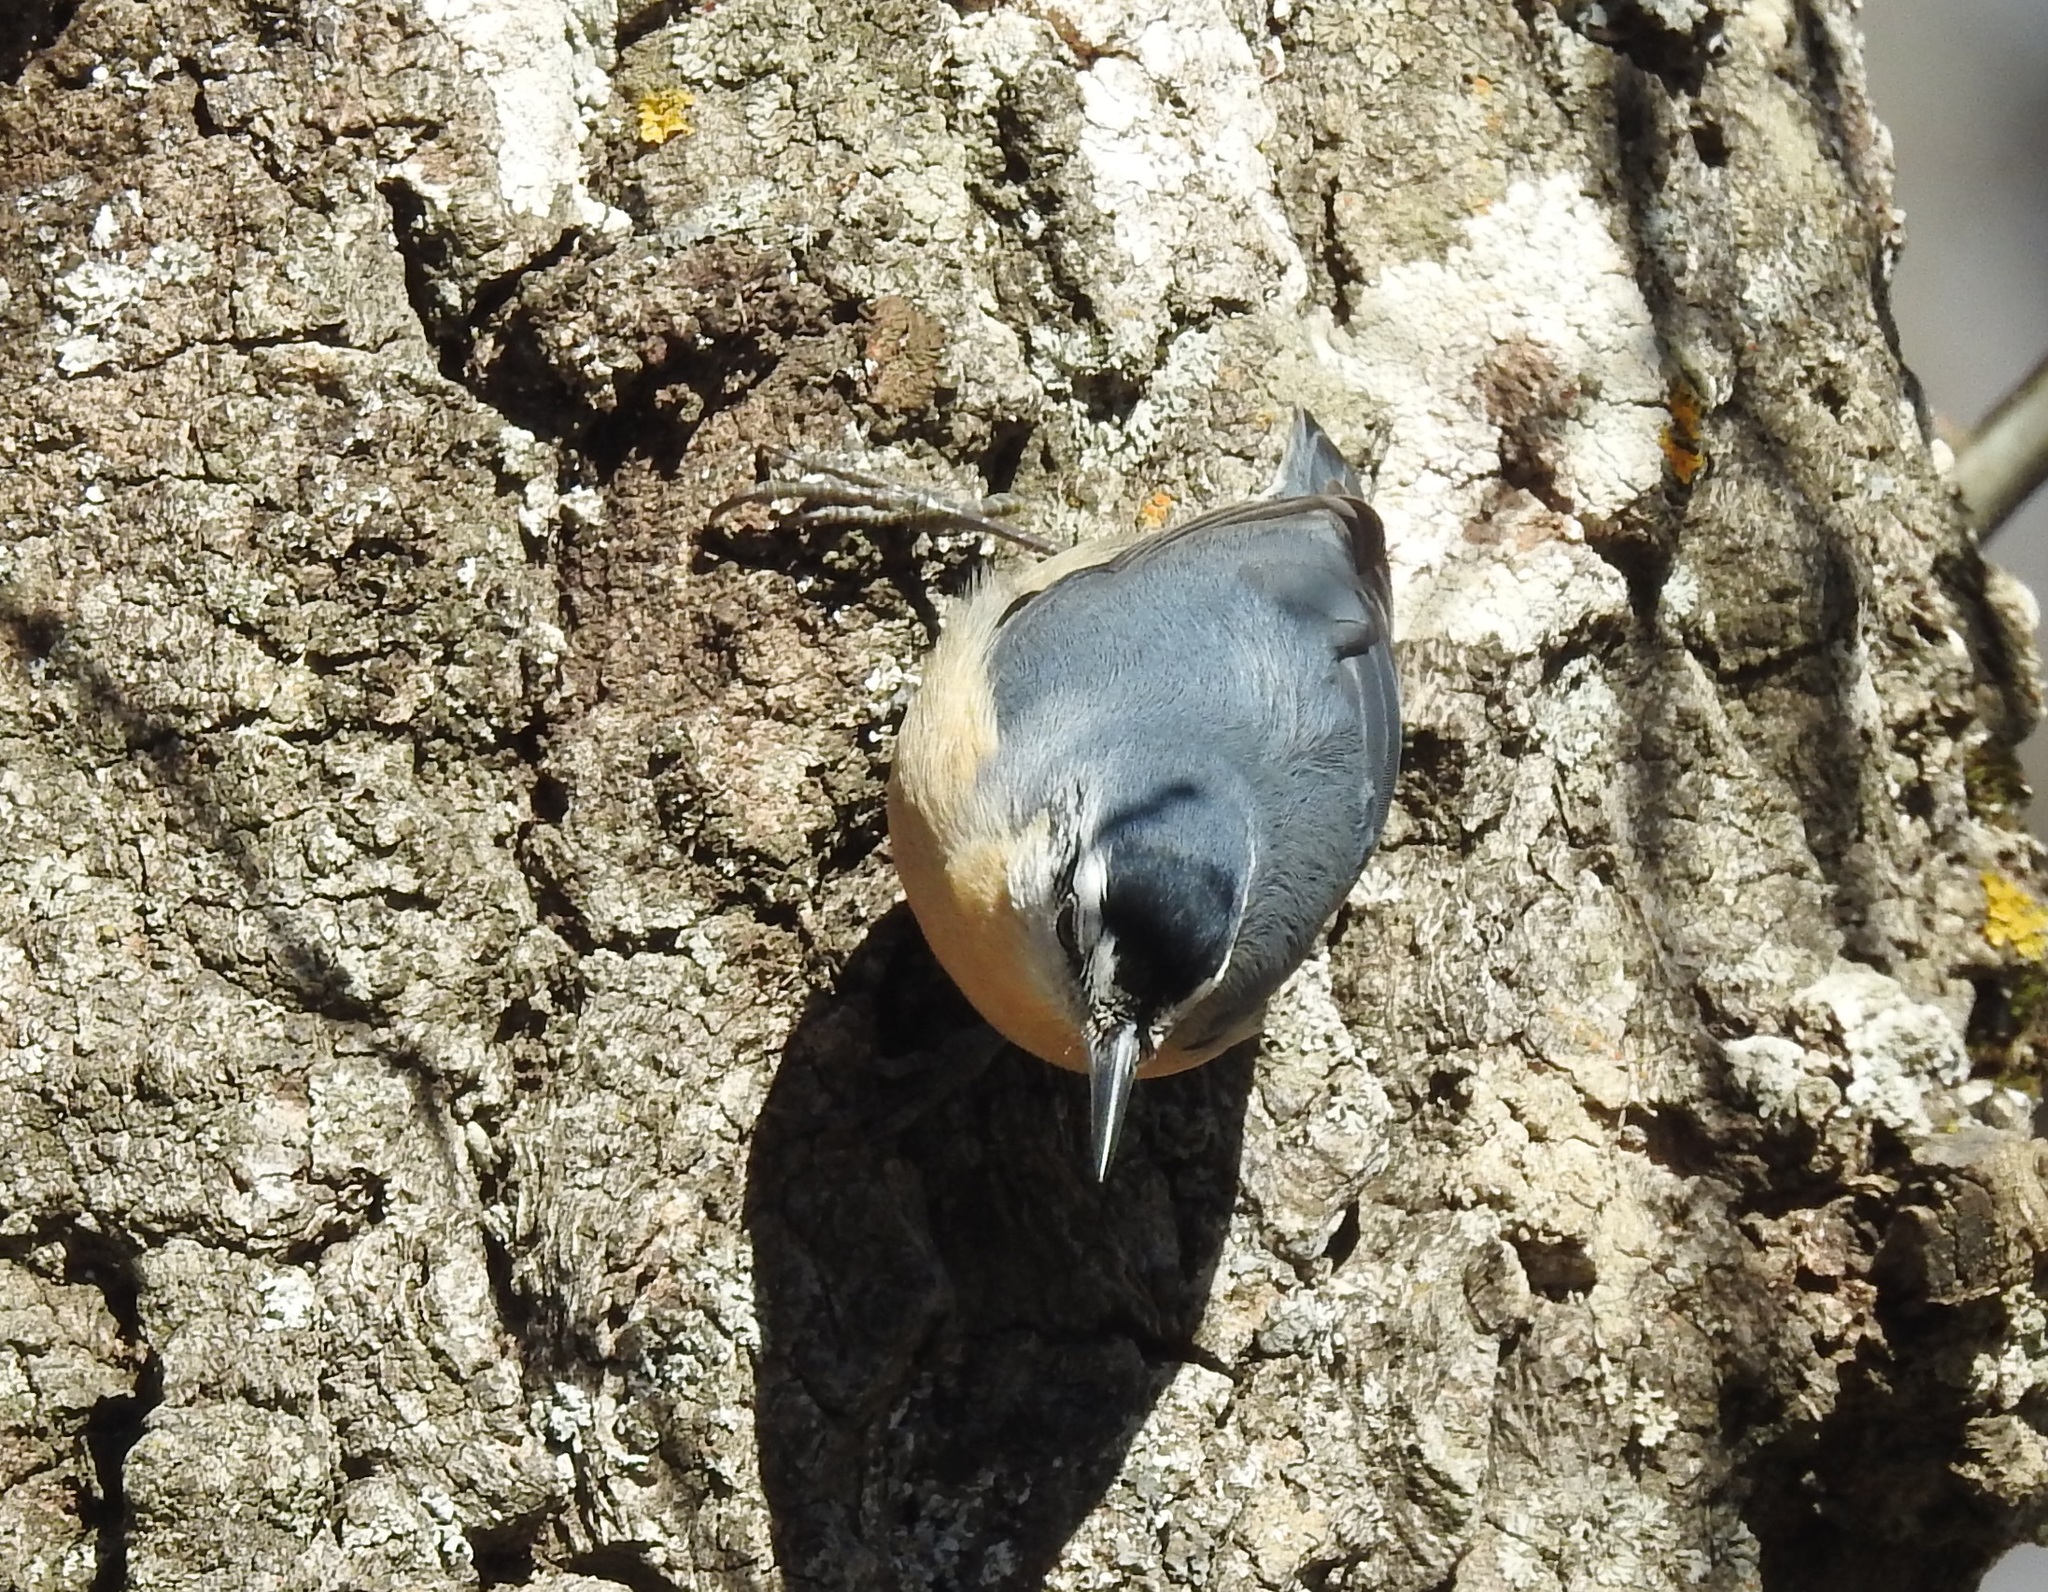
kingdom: Animalia
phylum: Chordata
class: Aves
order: Passeriformes
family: Sittidae
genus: Sitta
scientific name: Sitta ledanti
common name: Algerian nuthatch
